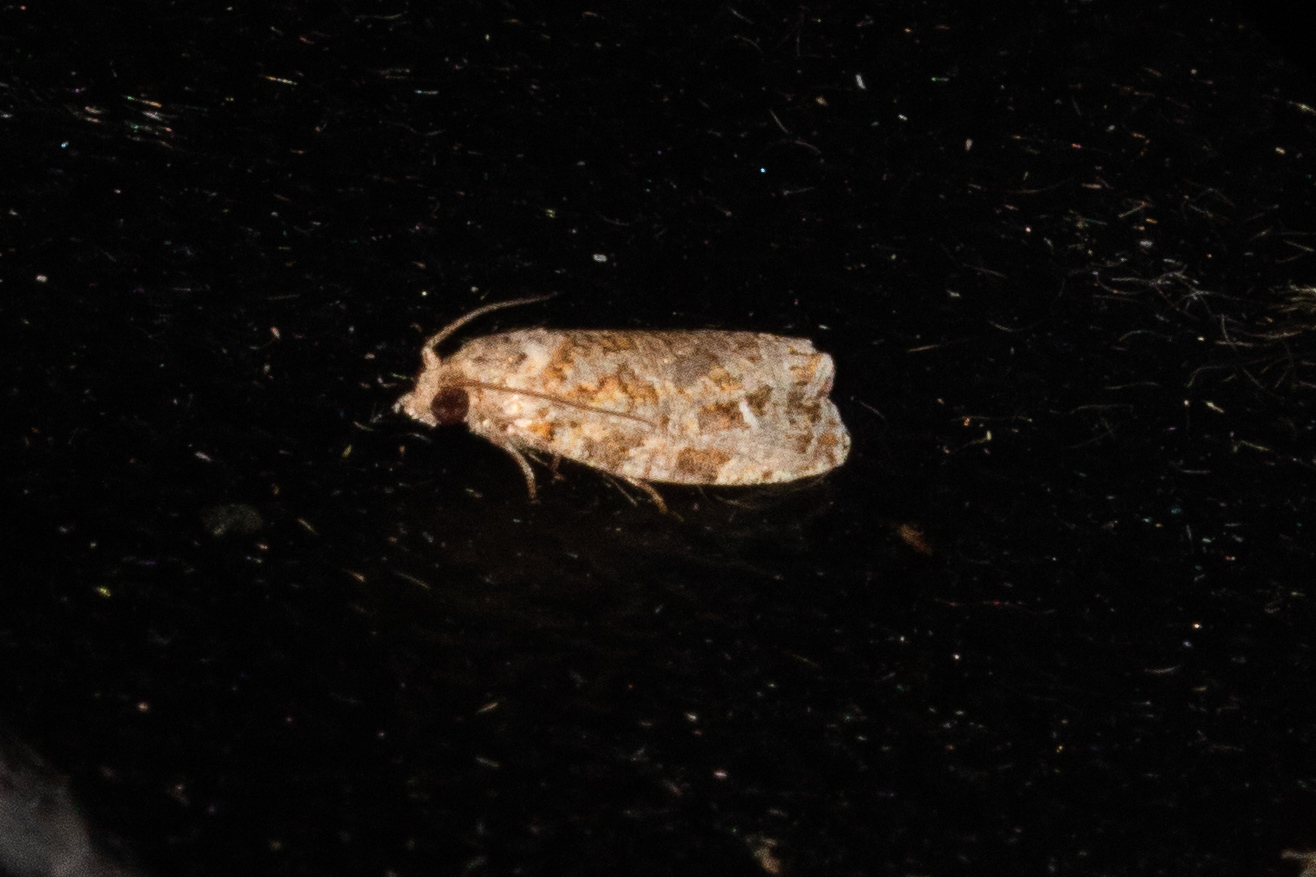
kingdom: Animalia
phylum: Arthropoda
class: Insecta
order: Lepidoptera
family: Tortricidae
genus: Phaecasiophora
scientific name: Phaecasiophora niveiguttana
